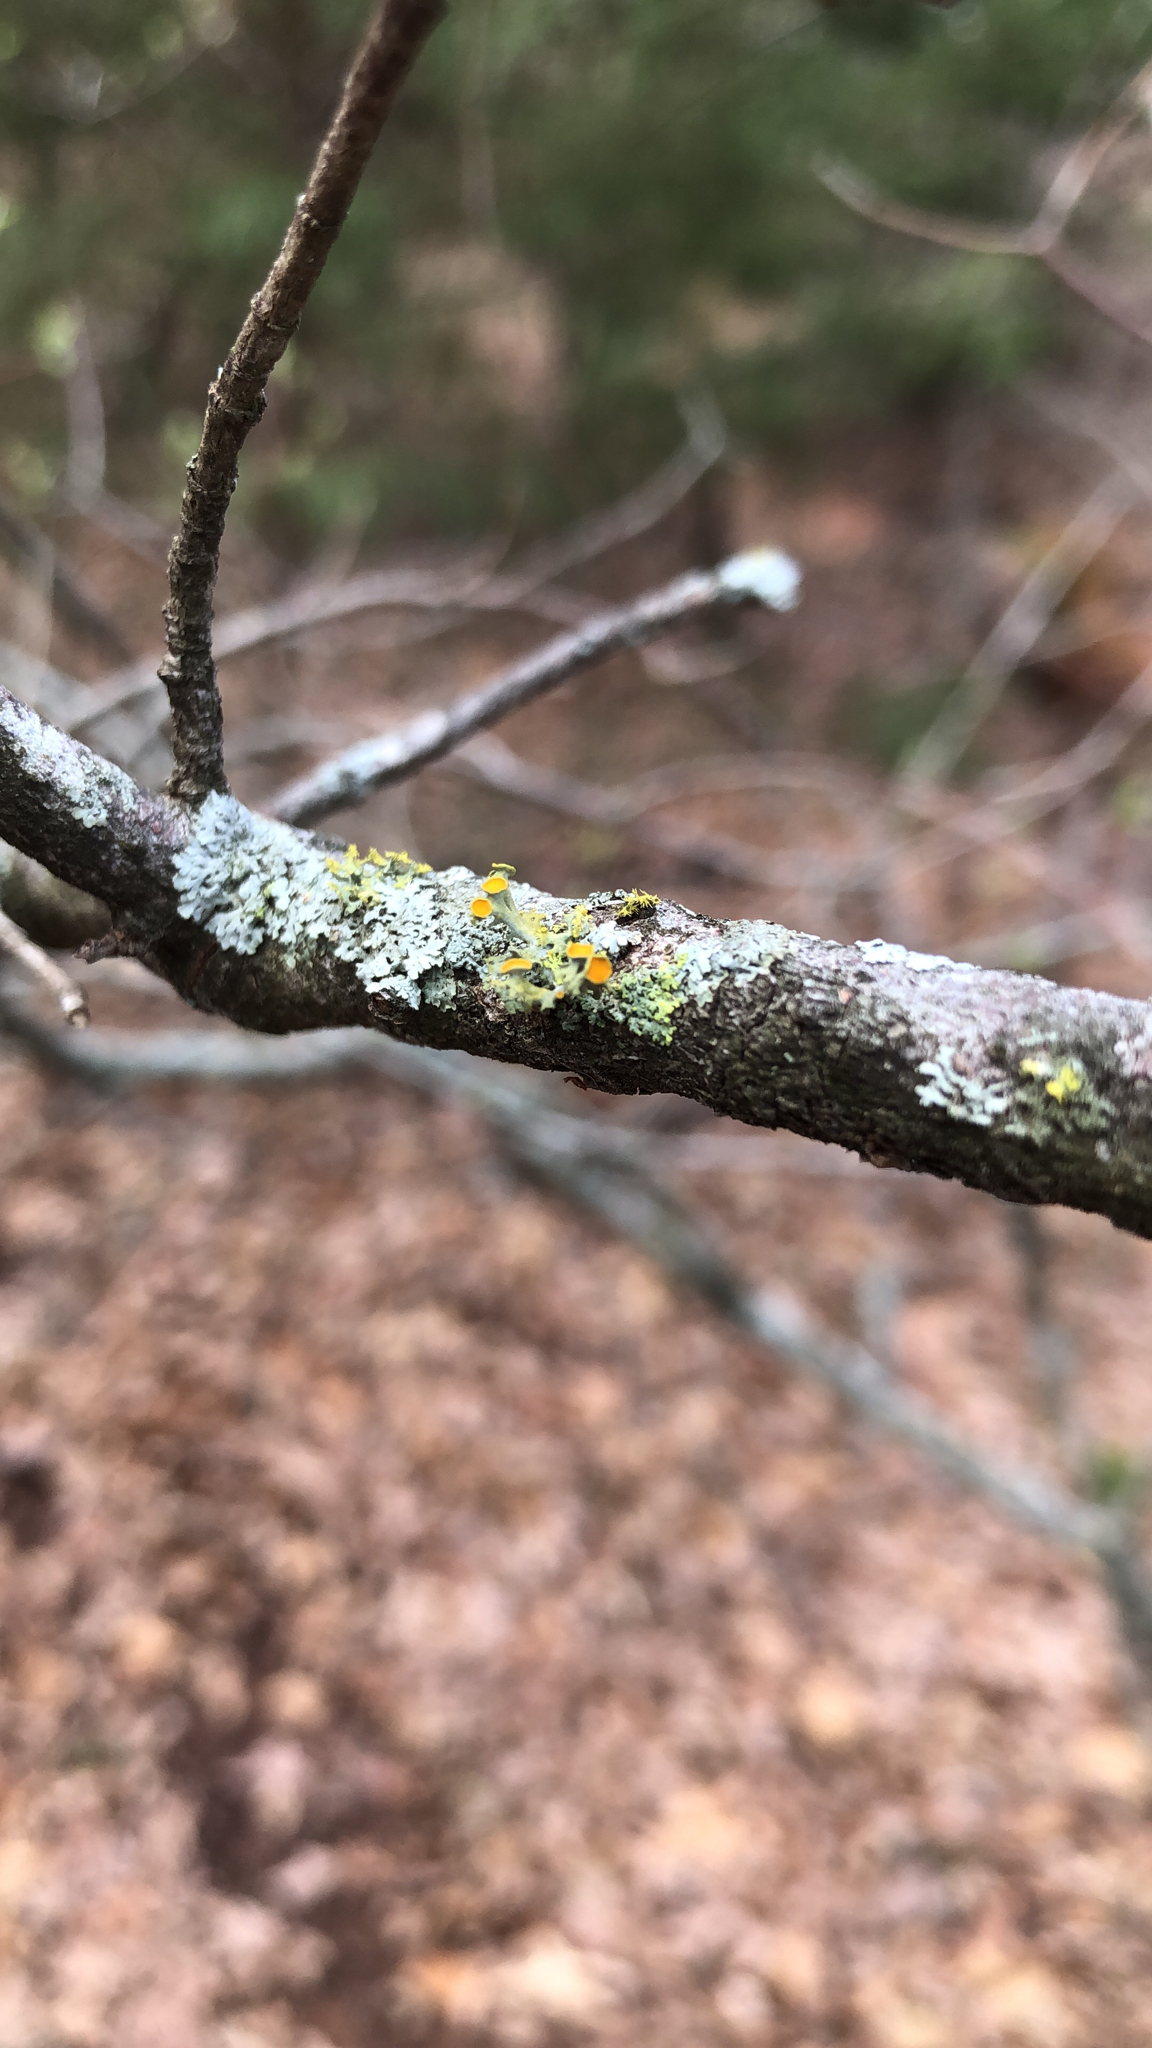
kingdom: Fungi
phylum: Ascomycota
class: Lecanoromycetes
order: Teloschistales
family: Teloschistaceae
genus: Niorma
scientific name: Niorma chrysophthalma
